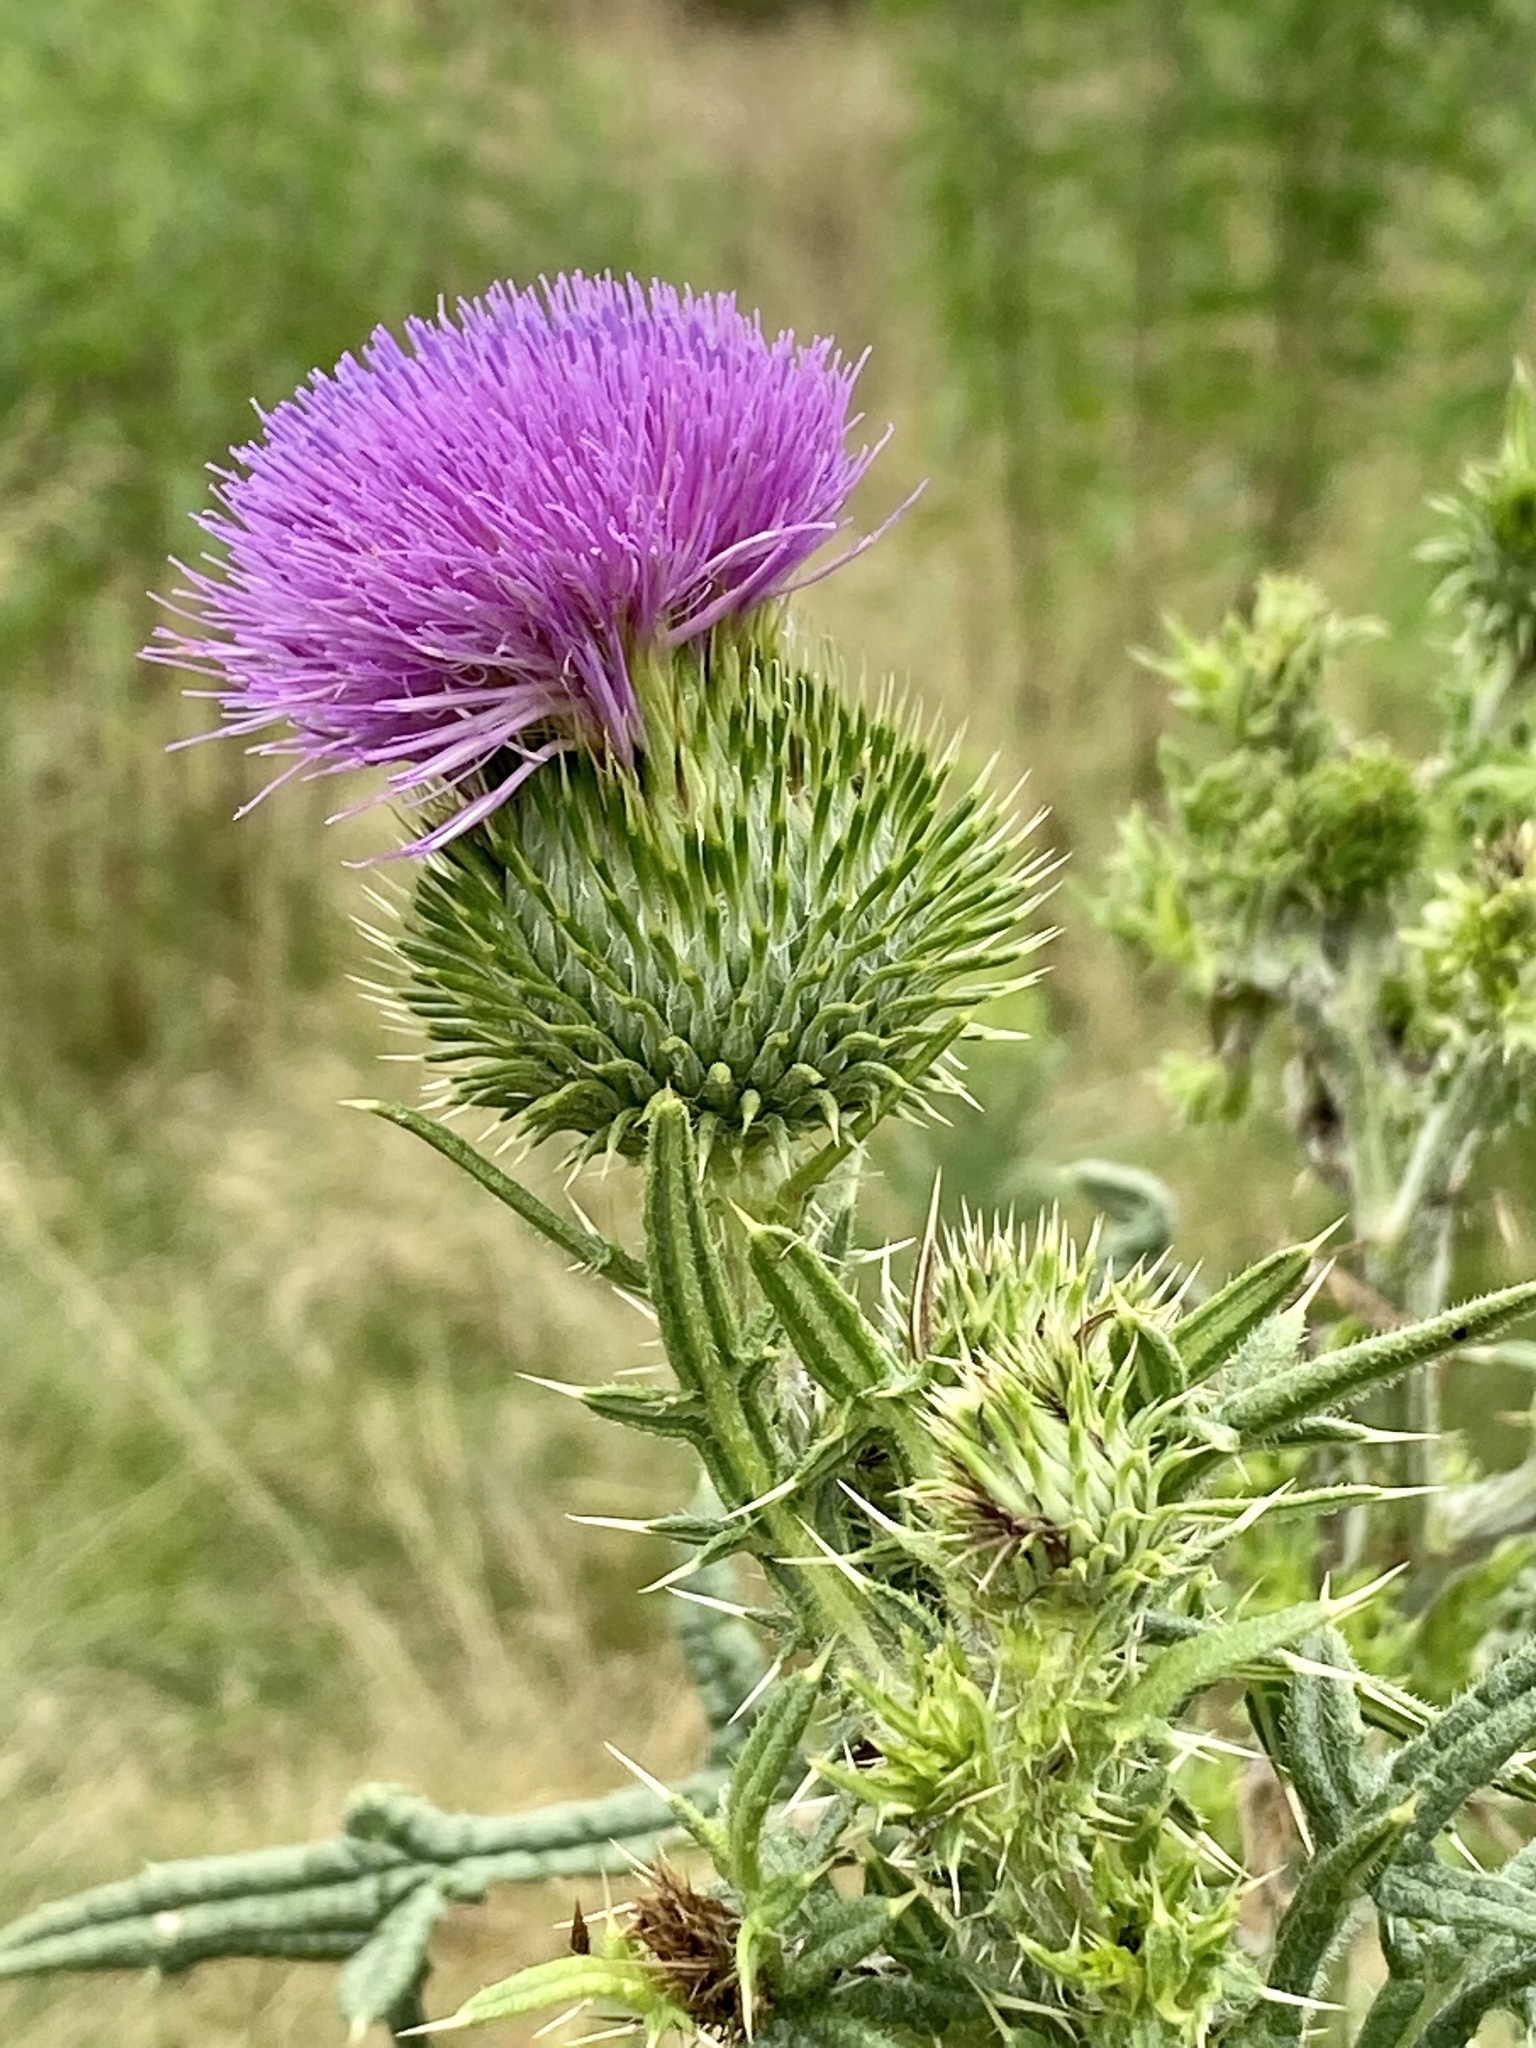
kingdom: Plantae
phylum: Tracheophyta
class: Magnoliopsida
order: Asterales
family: Asteraceae
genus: Cirsium
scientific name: Cirsium vulgare
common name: Bull thistle
